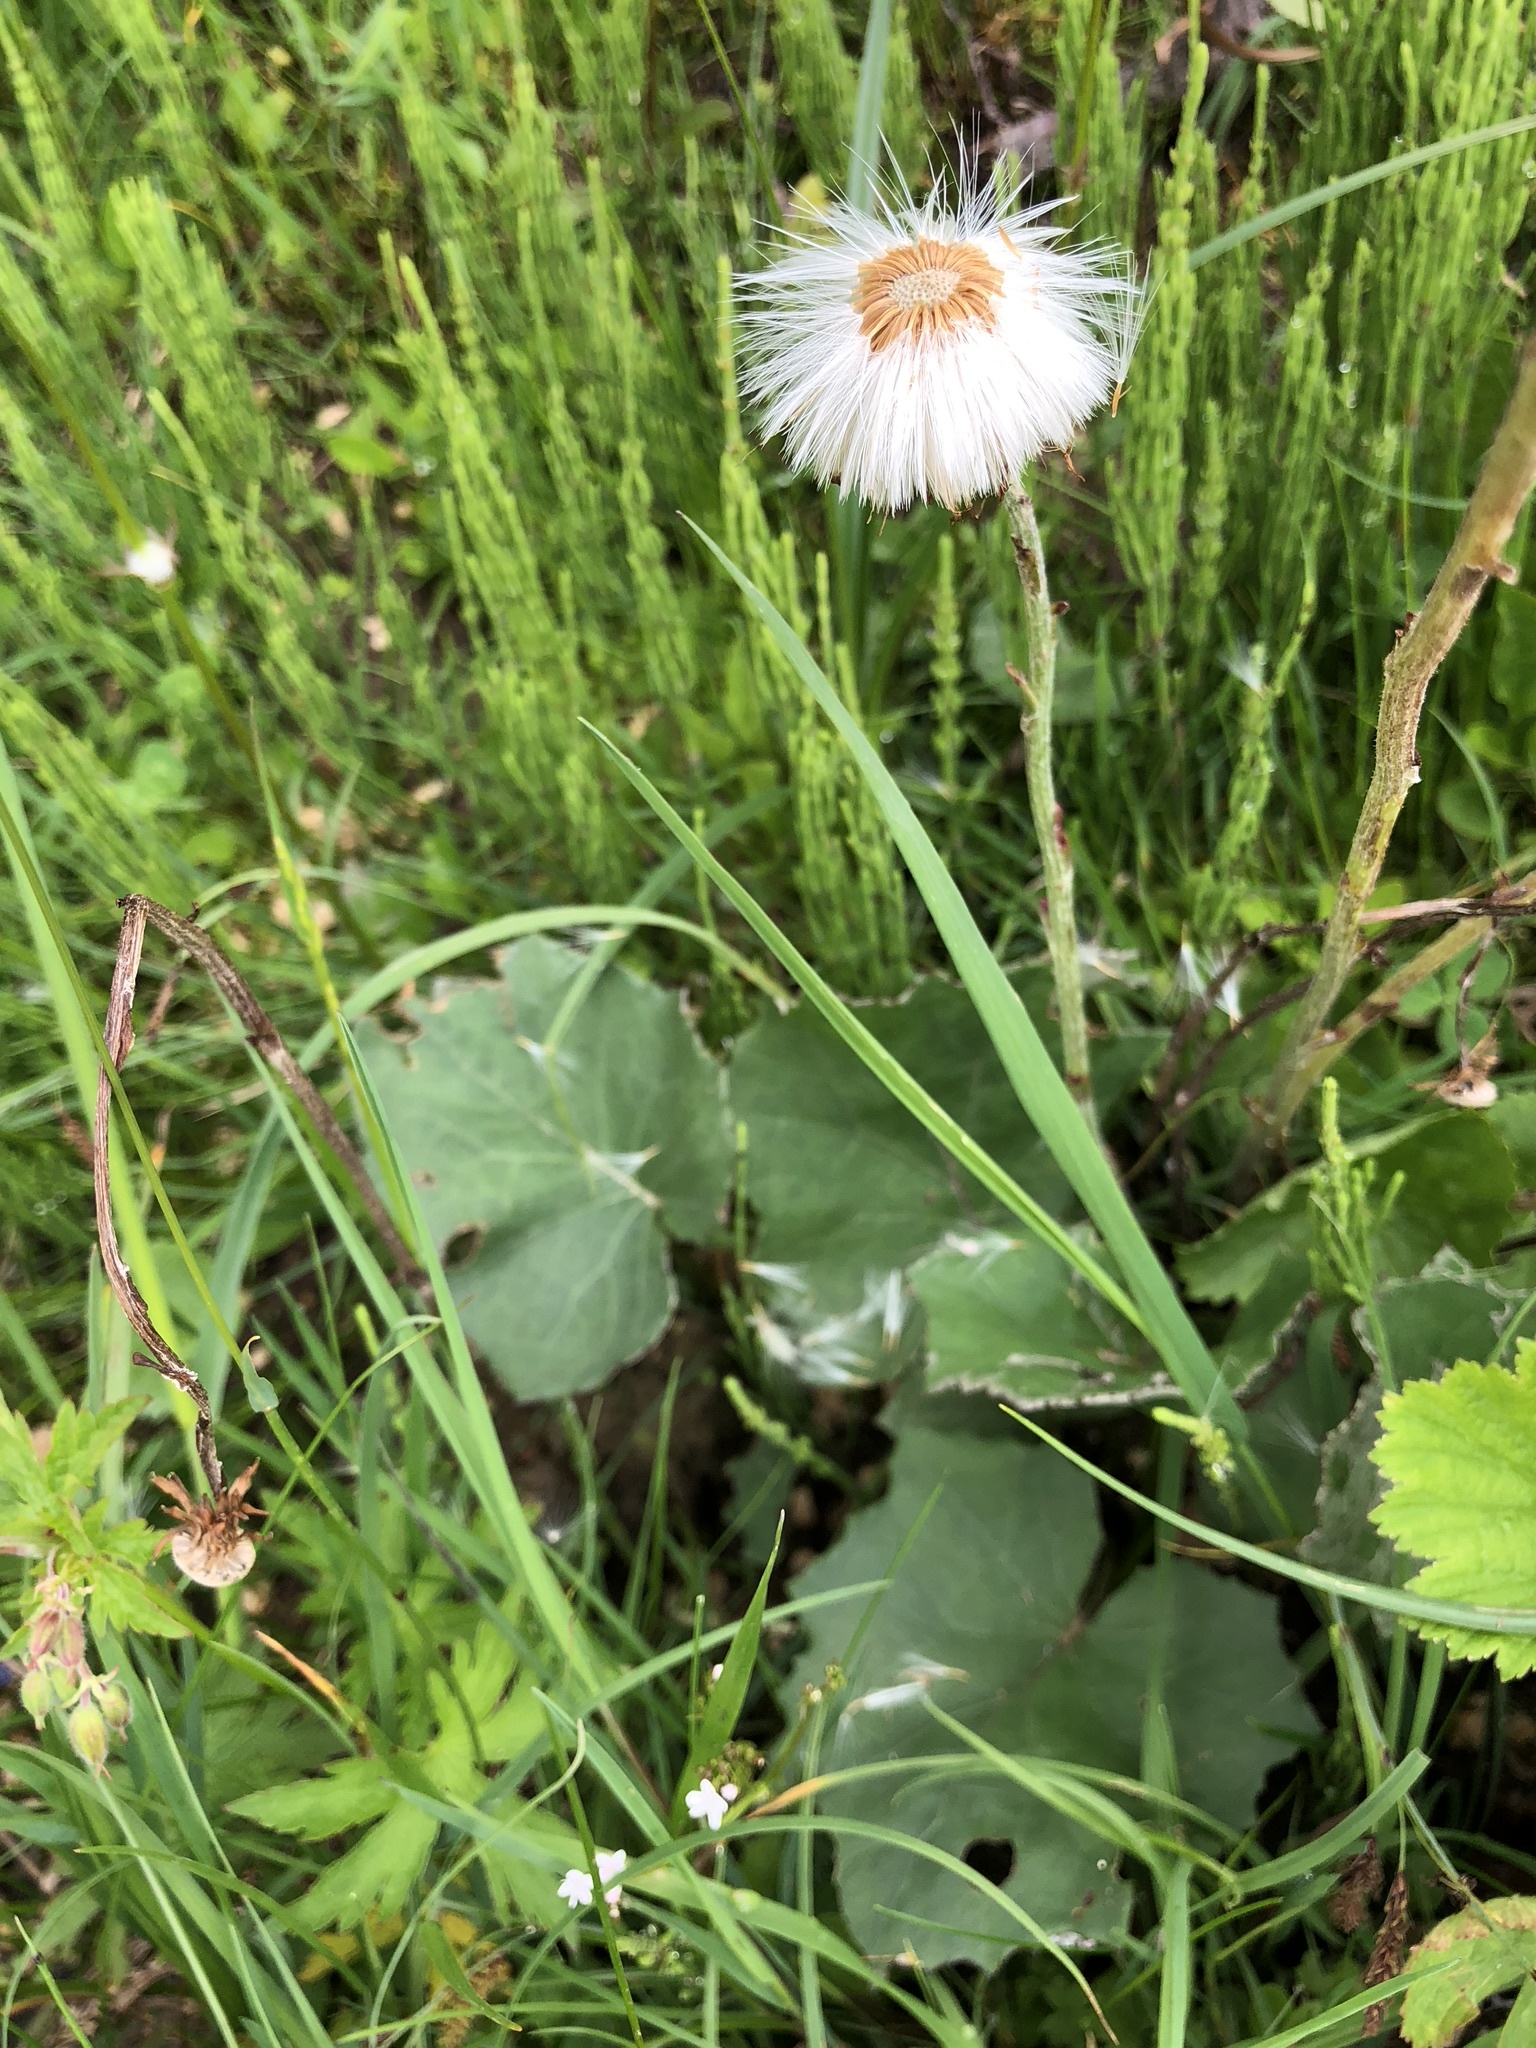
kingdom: Plantae
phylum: Tracheophyta
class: Magnoliopsida
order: Asterales
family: Asteraceae
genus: Tussilago
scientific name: Tussilago farfara
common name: Coltsfoot
